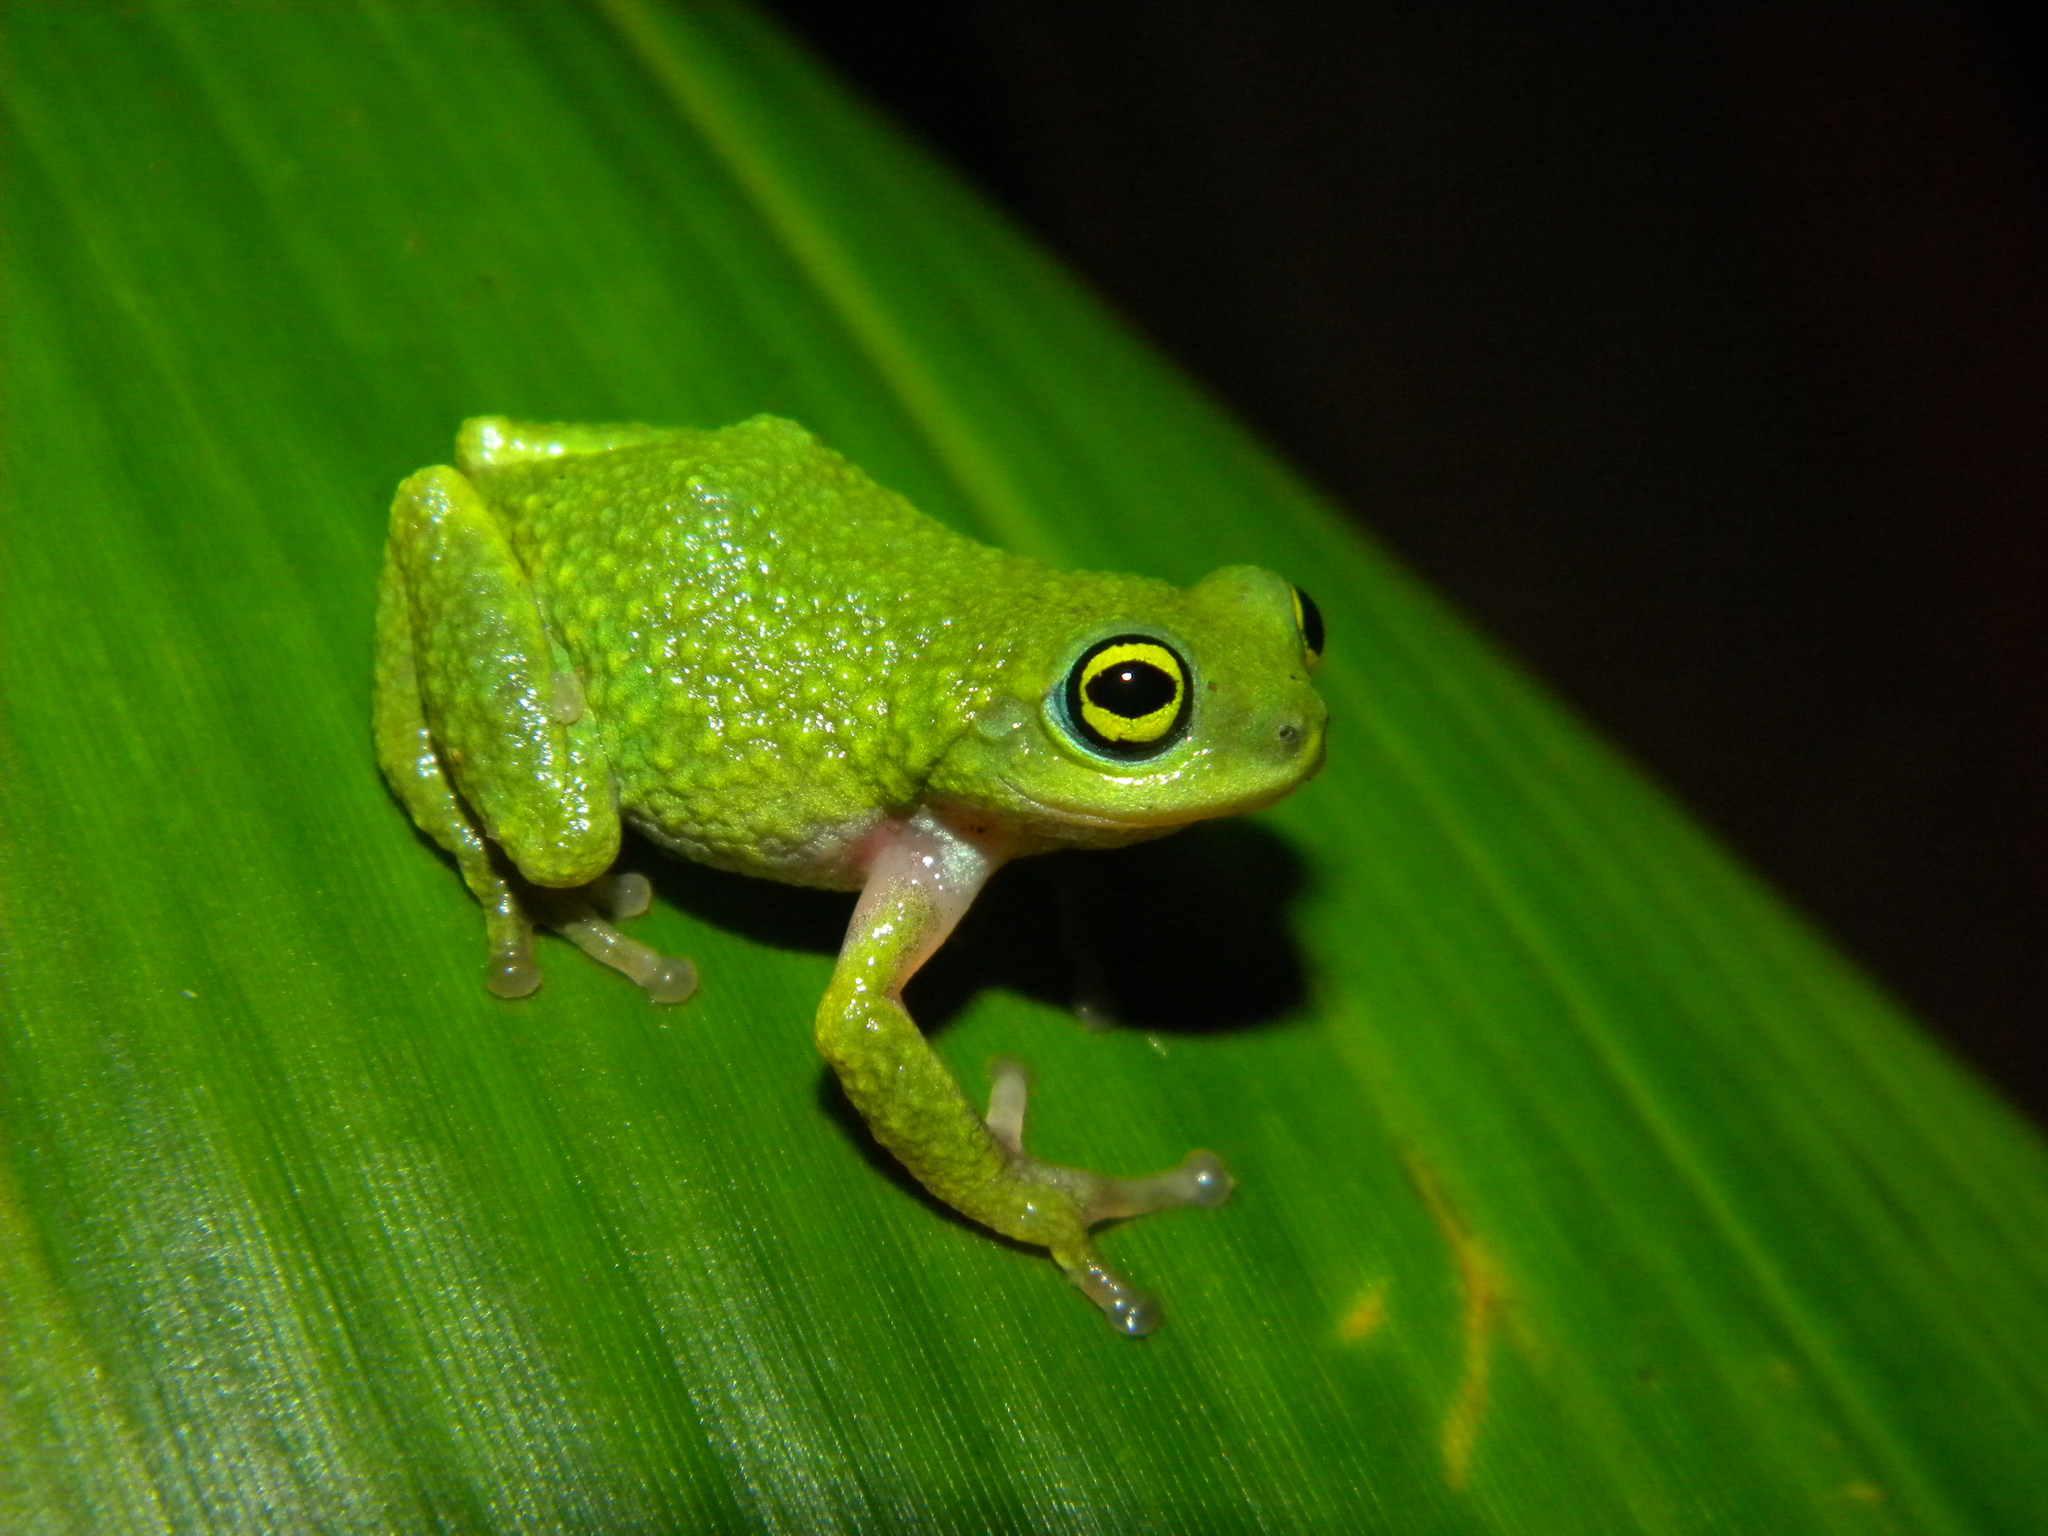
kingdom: Animalia
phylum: Chordata
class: Amphibia
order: Anura
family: Rhacophoridae
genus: Raorchestes
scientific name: Raorchestes chalazodes
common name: Günther's bush frog
